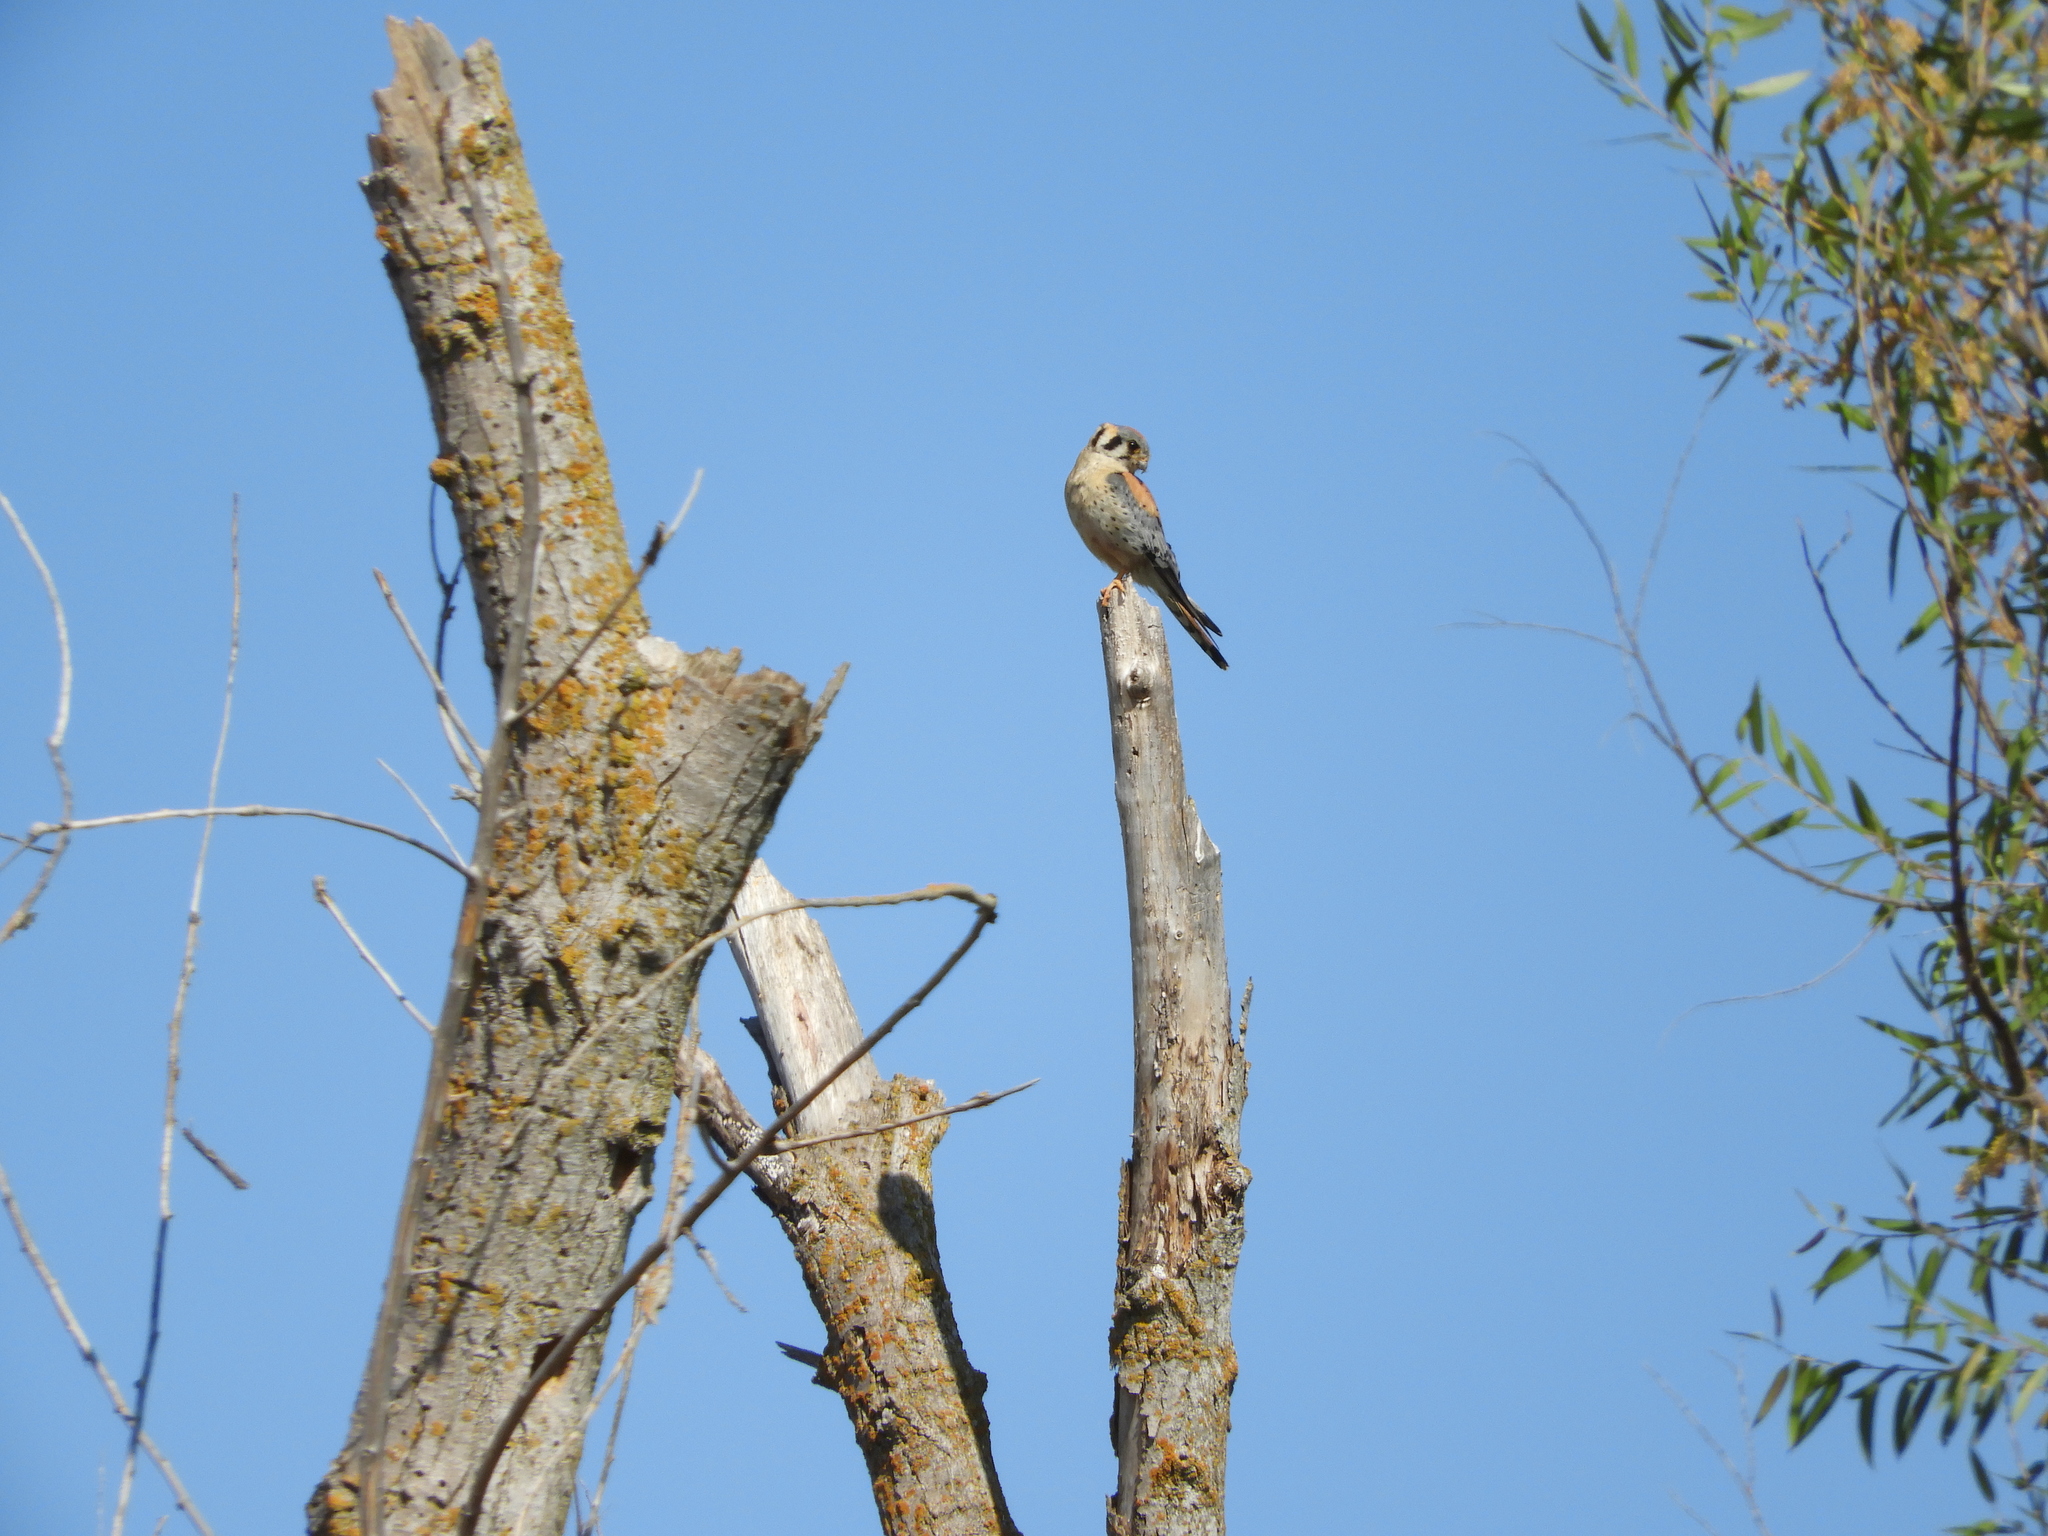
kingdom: Animalia
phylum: Chordata
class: Aves
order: Falconiformes
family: Falconidae
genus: Falco
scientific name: Falco sparverius
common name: American kestrel
